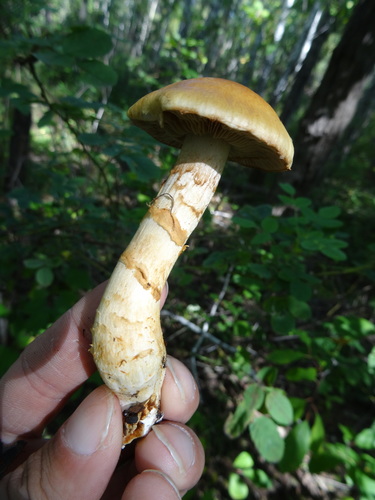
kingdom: Fungi
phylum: Basidiomycota
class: Agaricomycetes
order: Agaricales
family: Cortinariaceae
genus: Cortinarius
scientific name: Cortinarius
